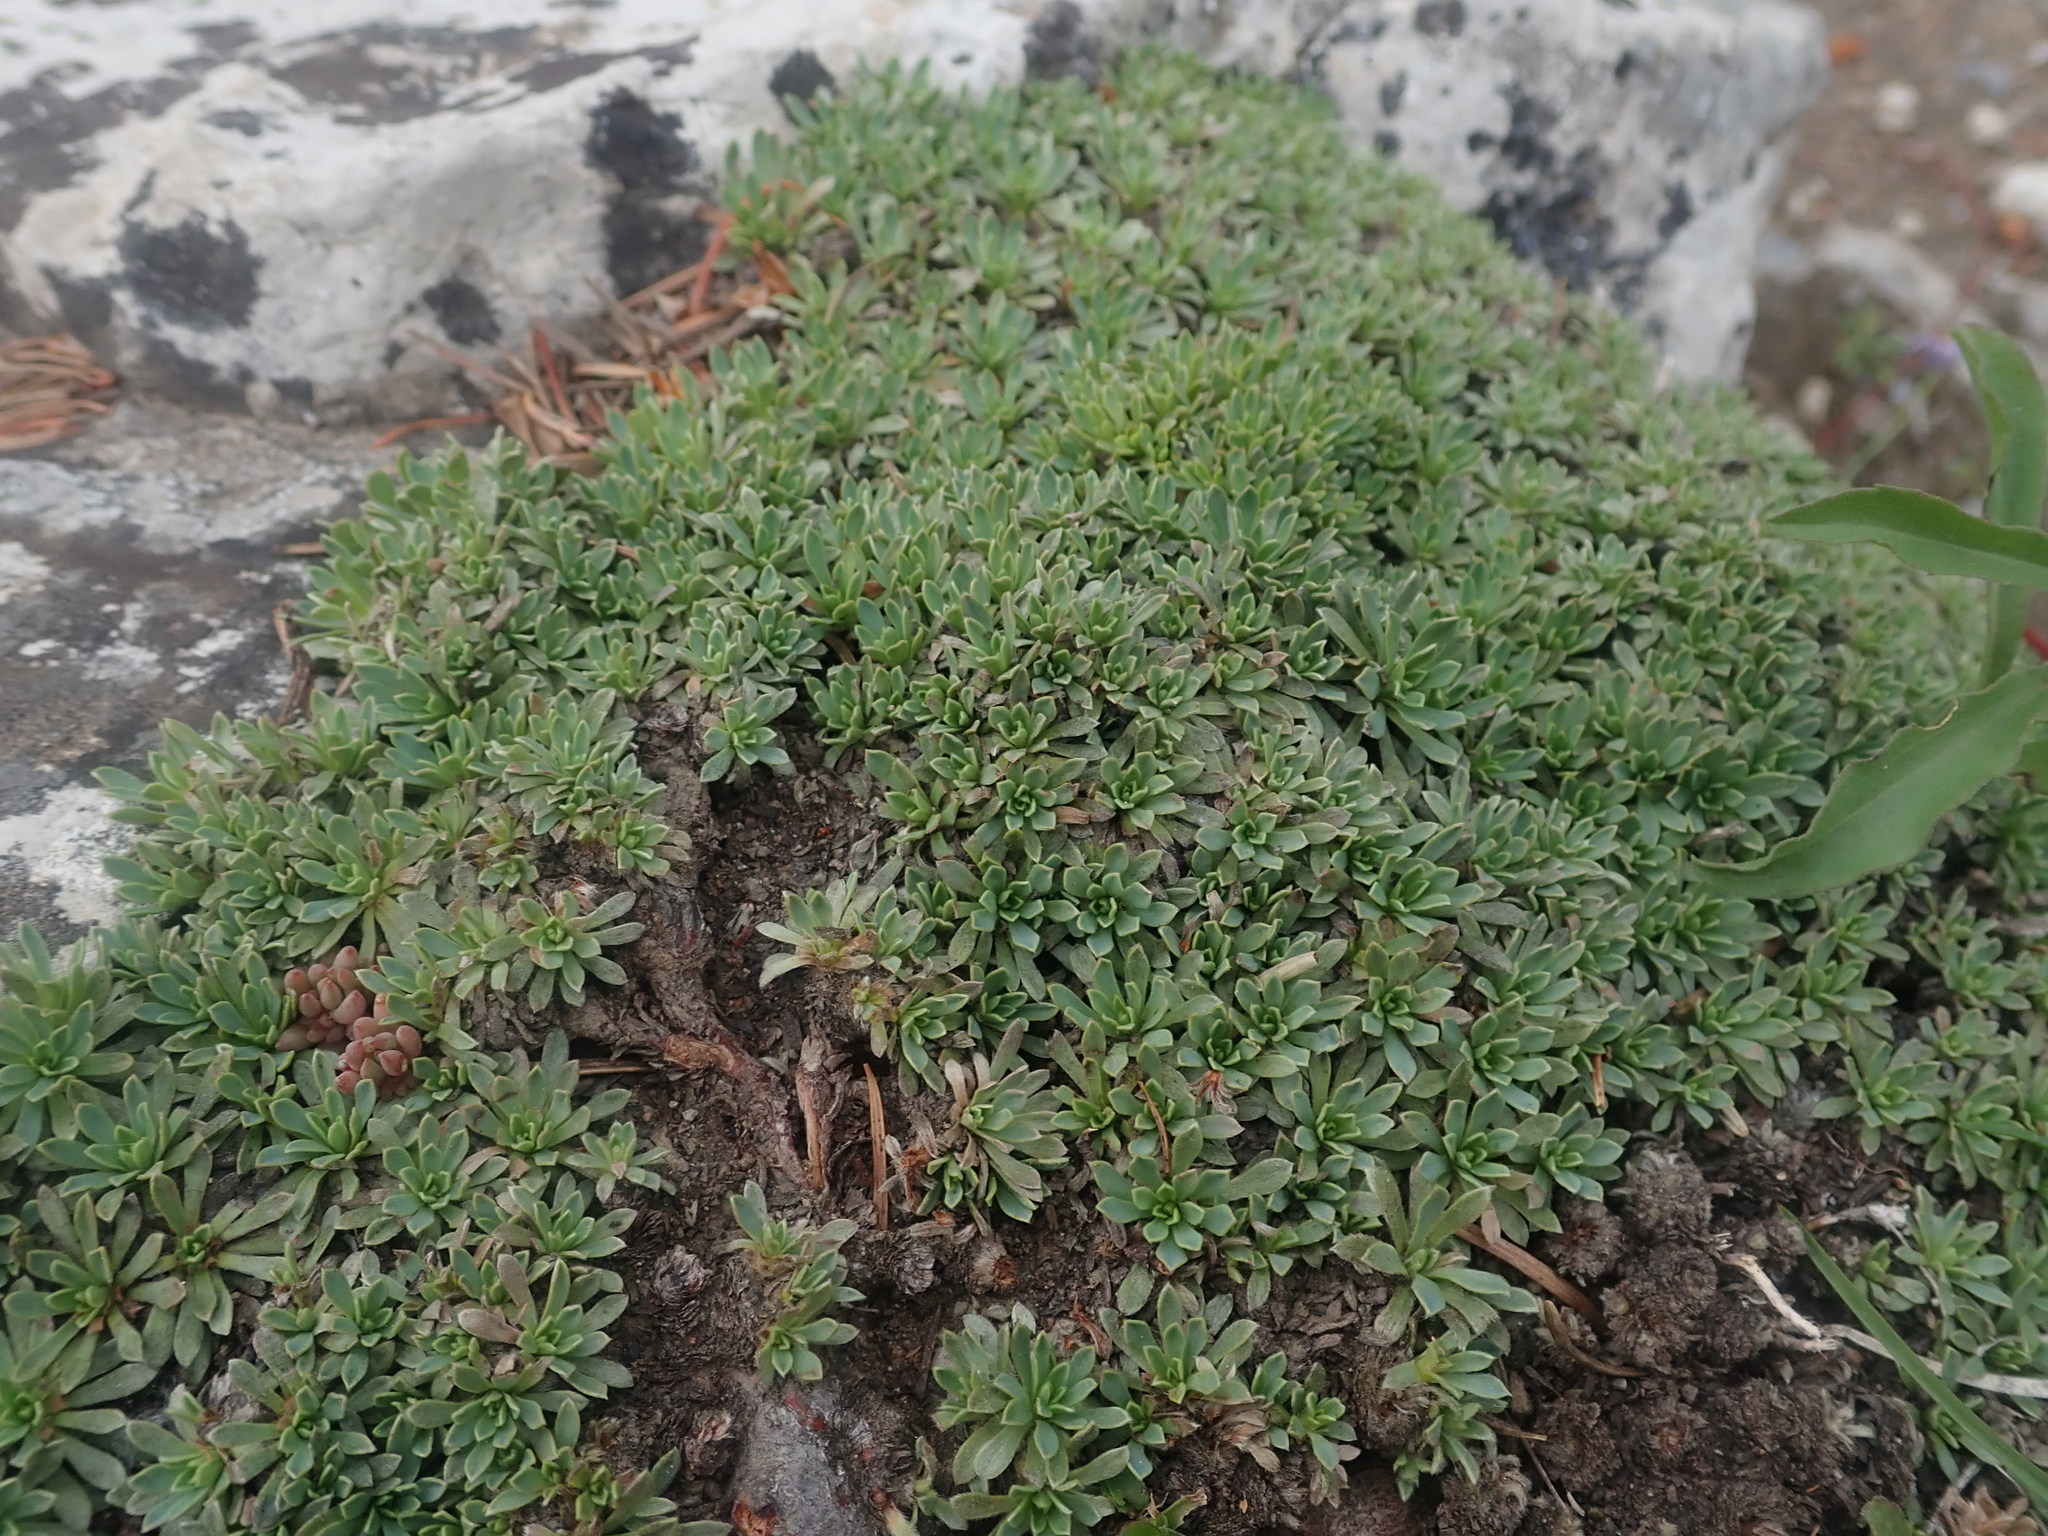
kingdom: Plantae
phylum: Tracheophyta
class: Magnoliopsida
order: Rosales
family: Rosaceae
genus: Petrophytum
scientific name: Petrophytum caespitosum
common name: Mat rockspirea
